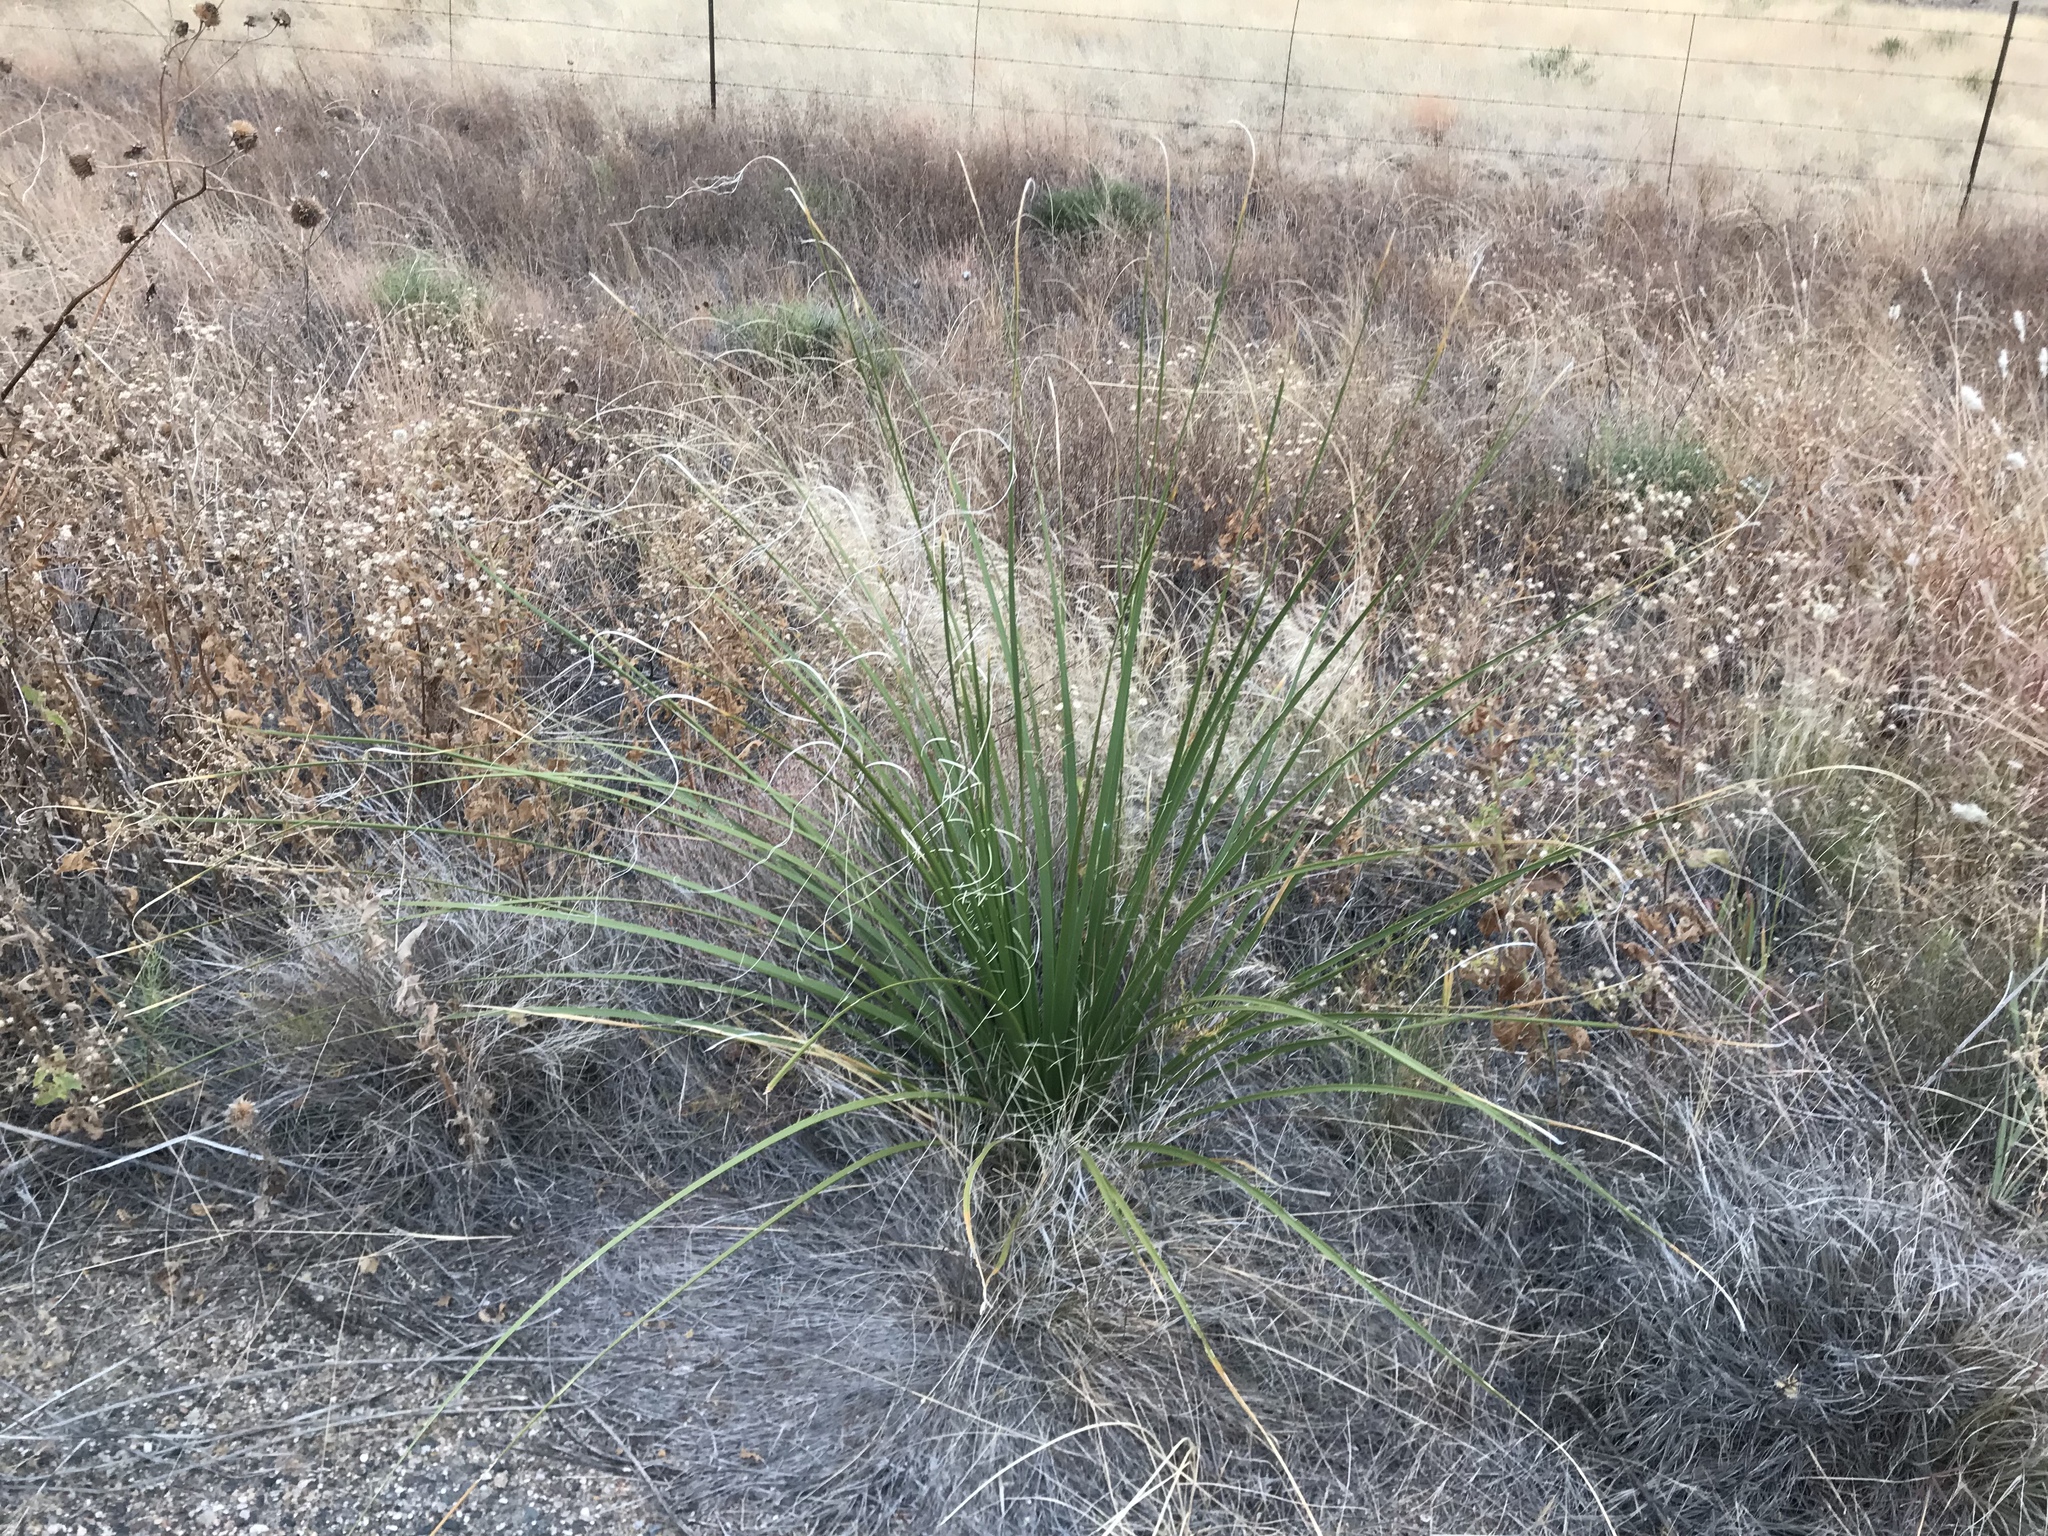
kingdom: Plantae
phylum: Tracheophyta
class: Liliopsida
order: Asparagales
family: Asparagaceae
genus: Nolina
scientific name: Nolina microcarpa
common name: Bear-grass
